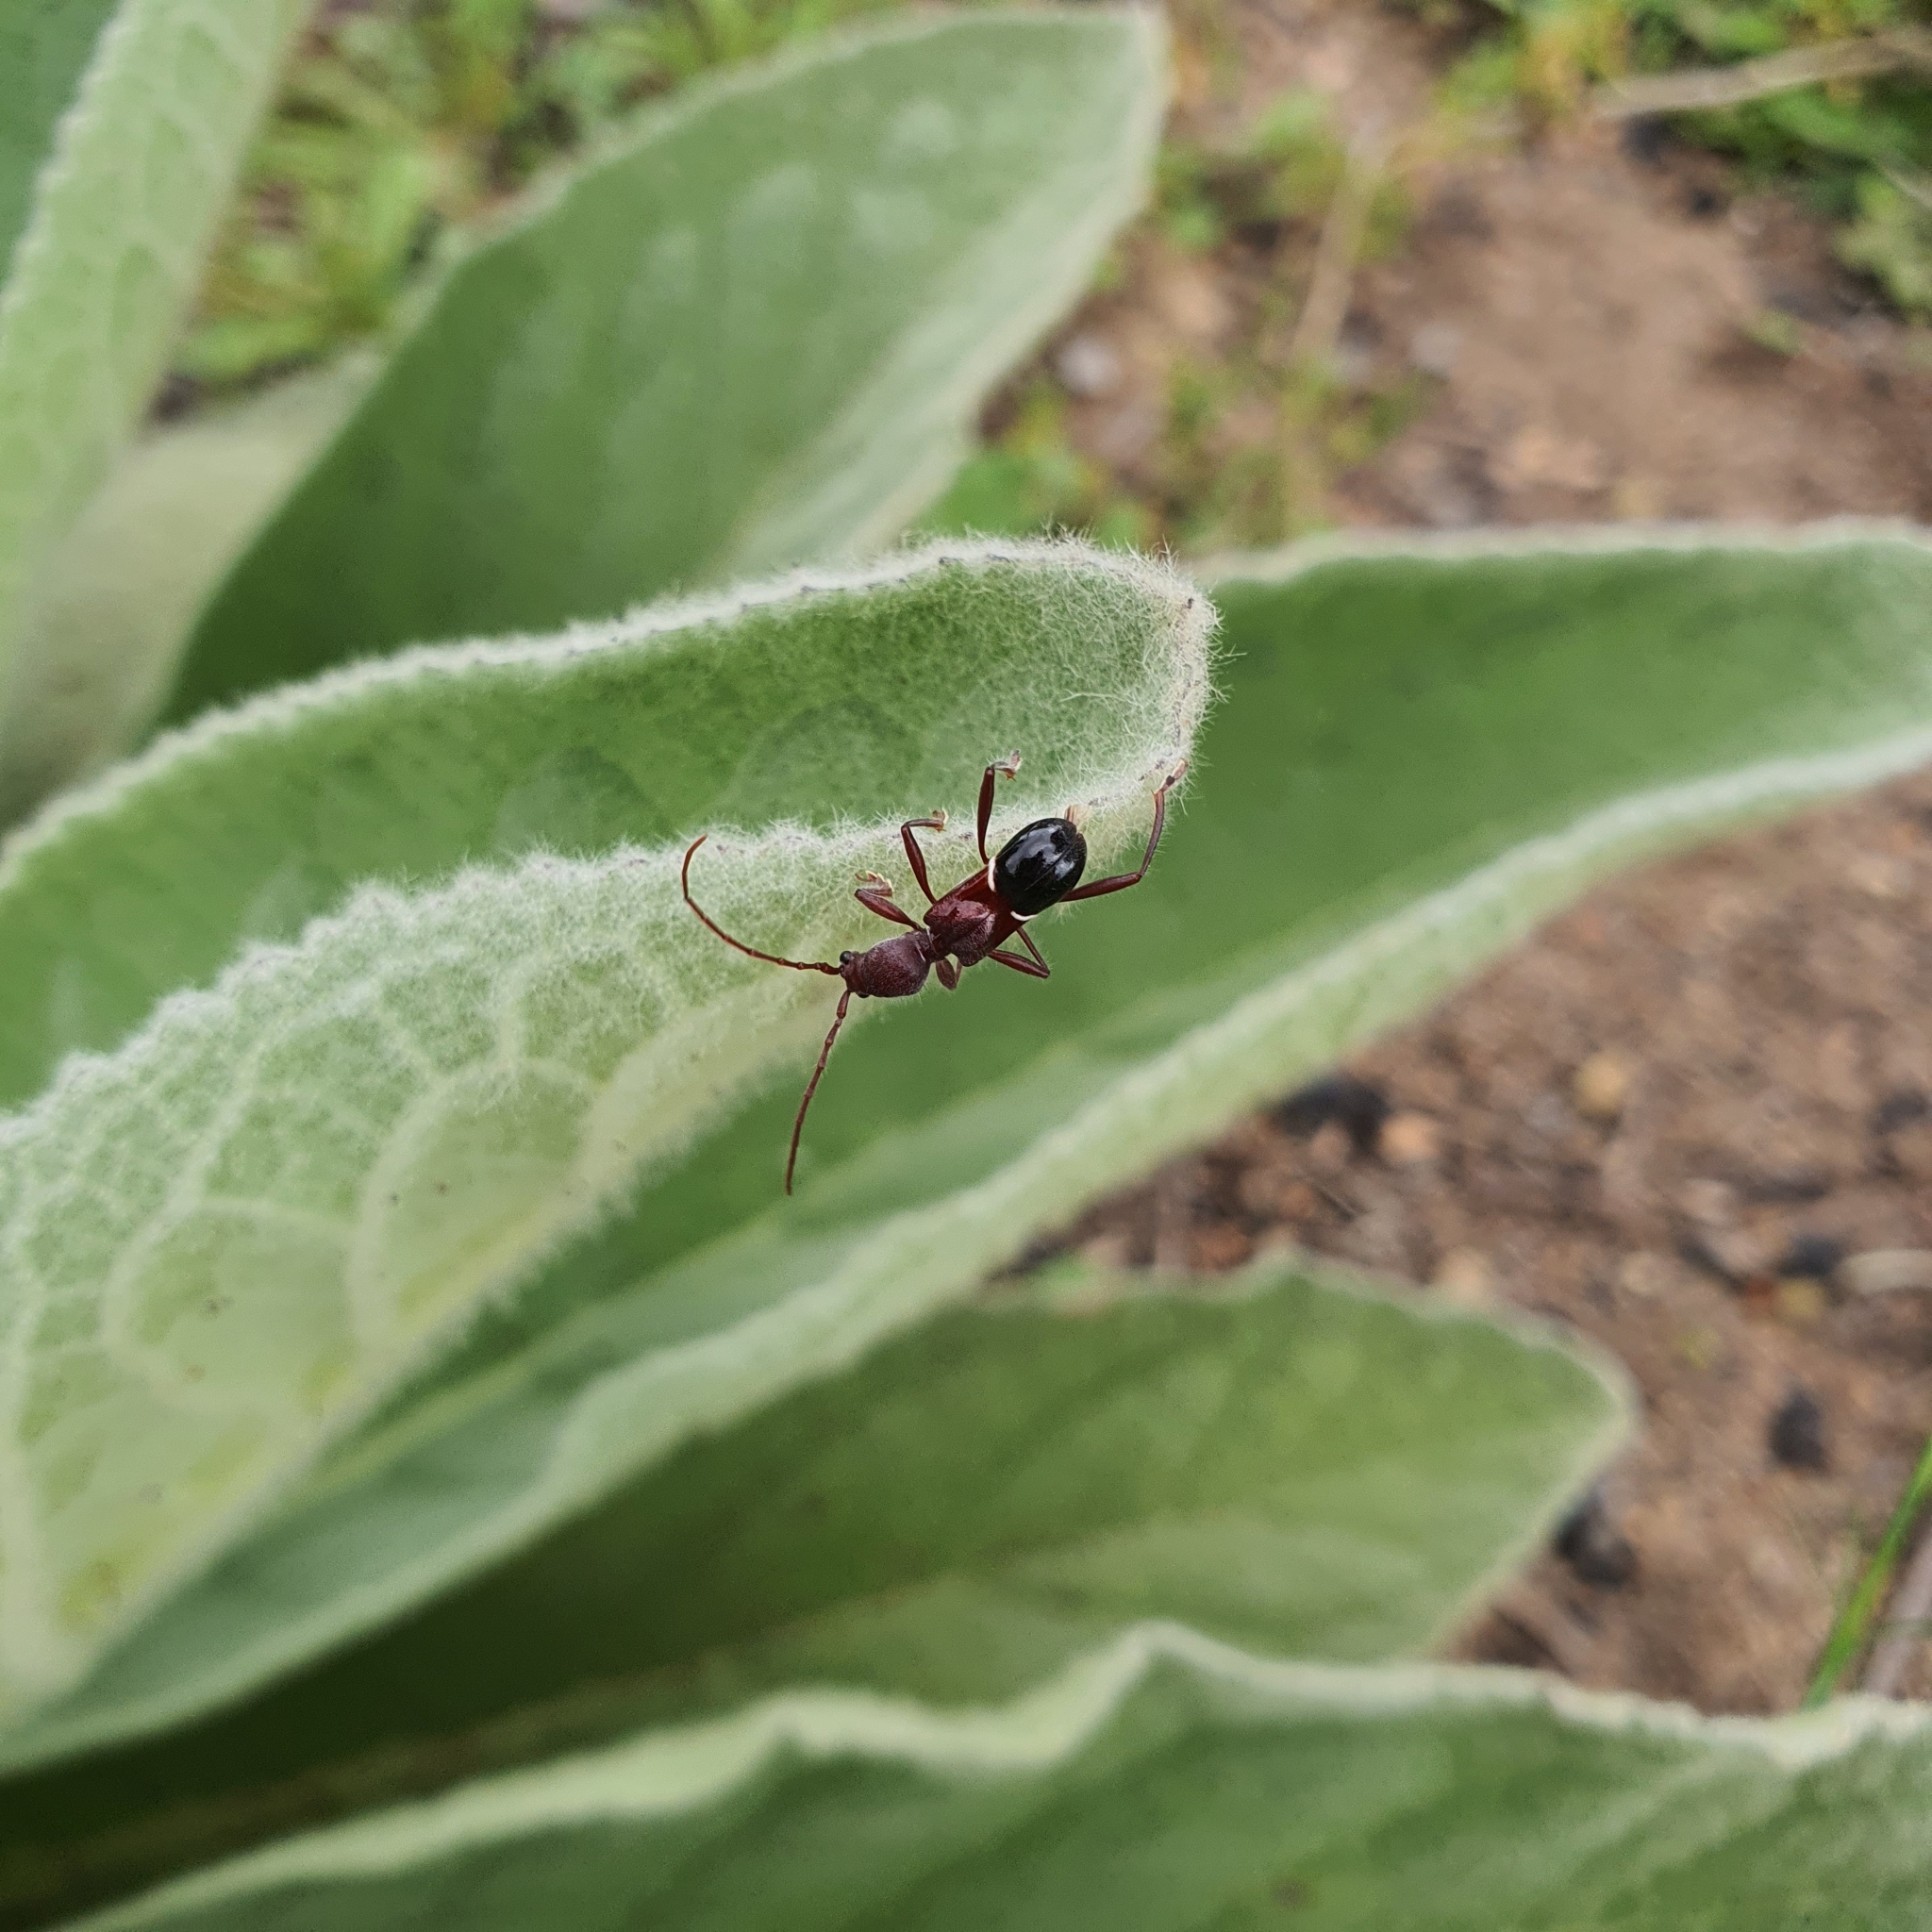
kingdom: Animalia
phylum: Arthropoda
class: Insecta
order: Coleoptera
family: Cerambycidae
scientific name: Cerambycidae
